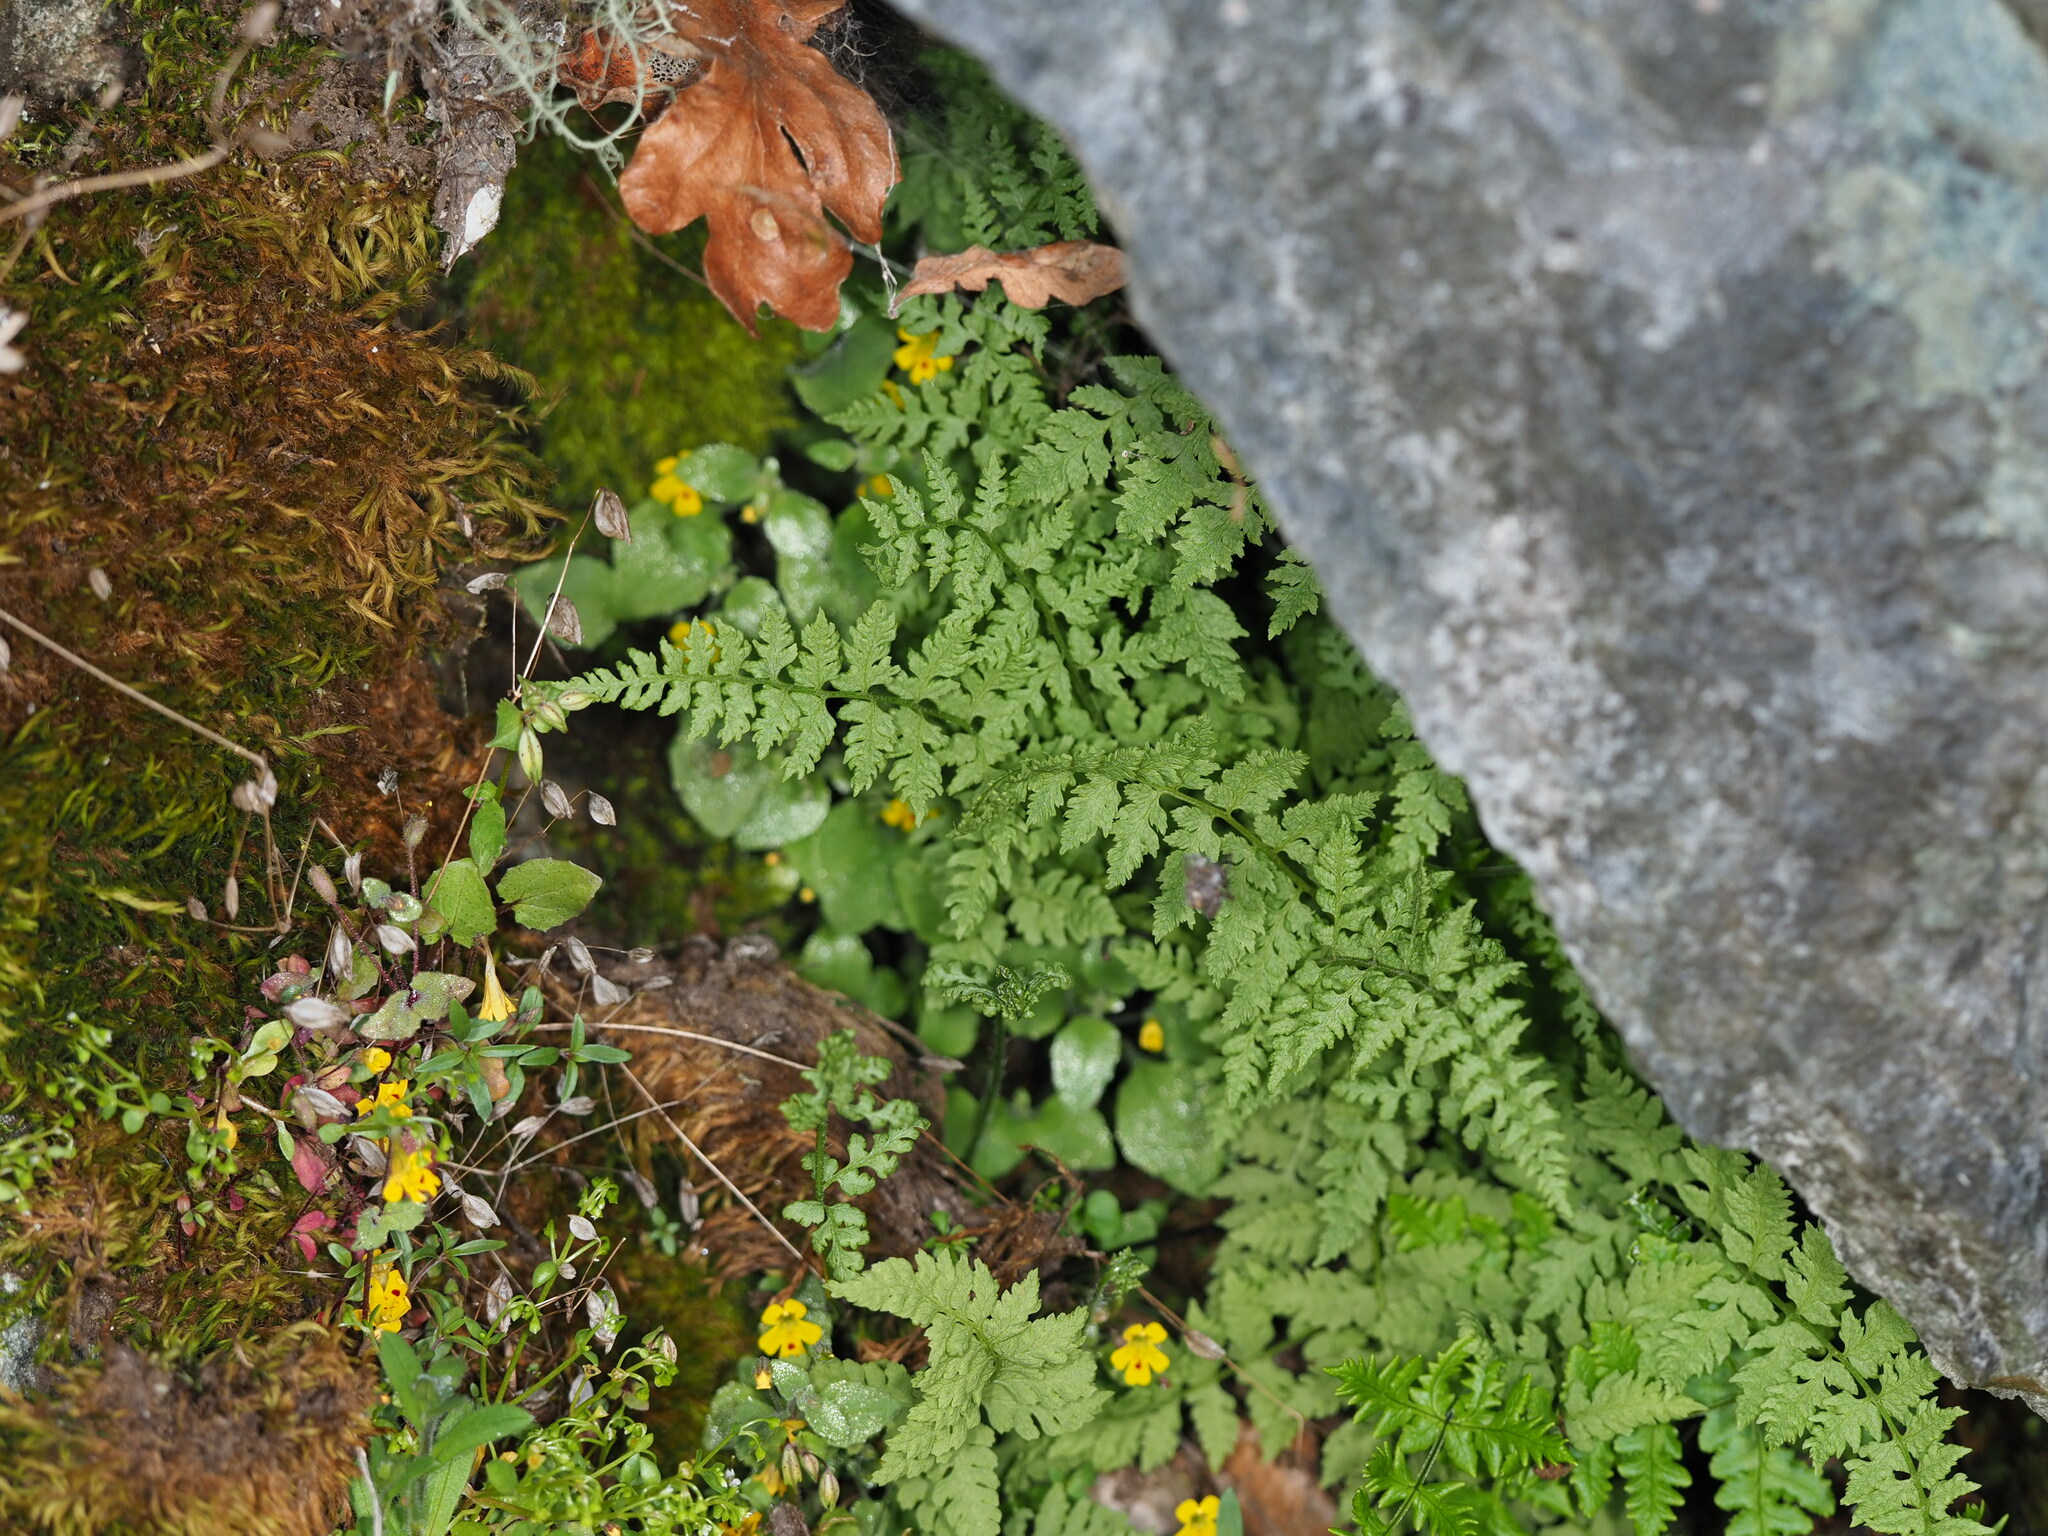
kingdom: Plantae
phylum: Tracheophyta
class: Polypodiopsida
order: Polypodiales
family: Cystopteridaceae
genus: Cystopteris
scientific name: Cystopteris fragilis
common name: Brittle bladder fern
